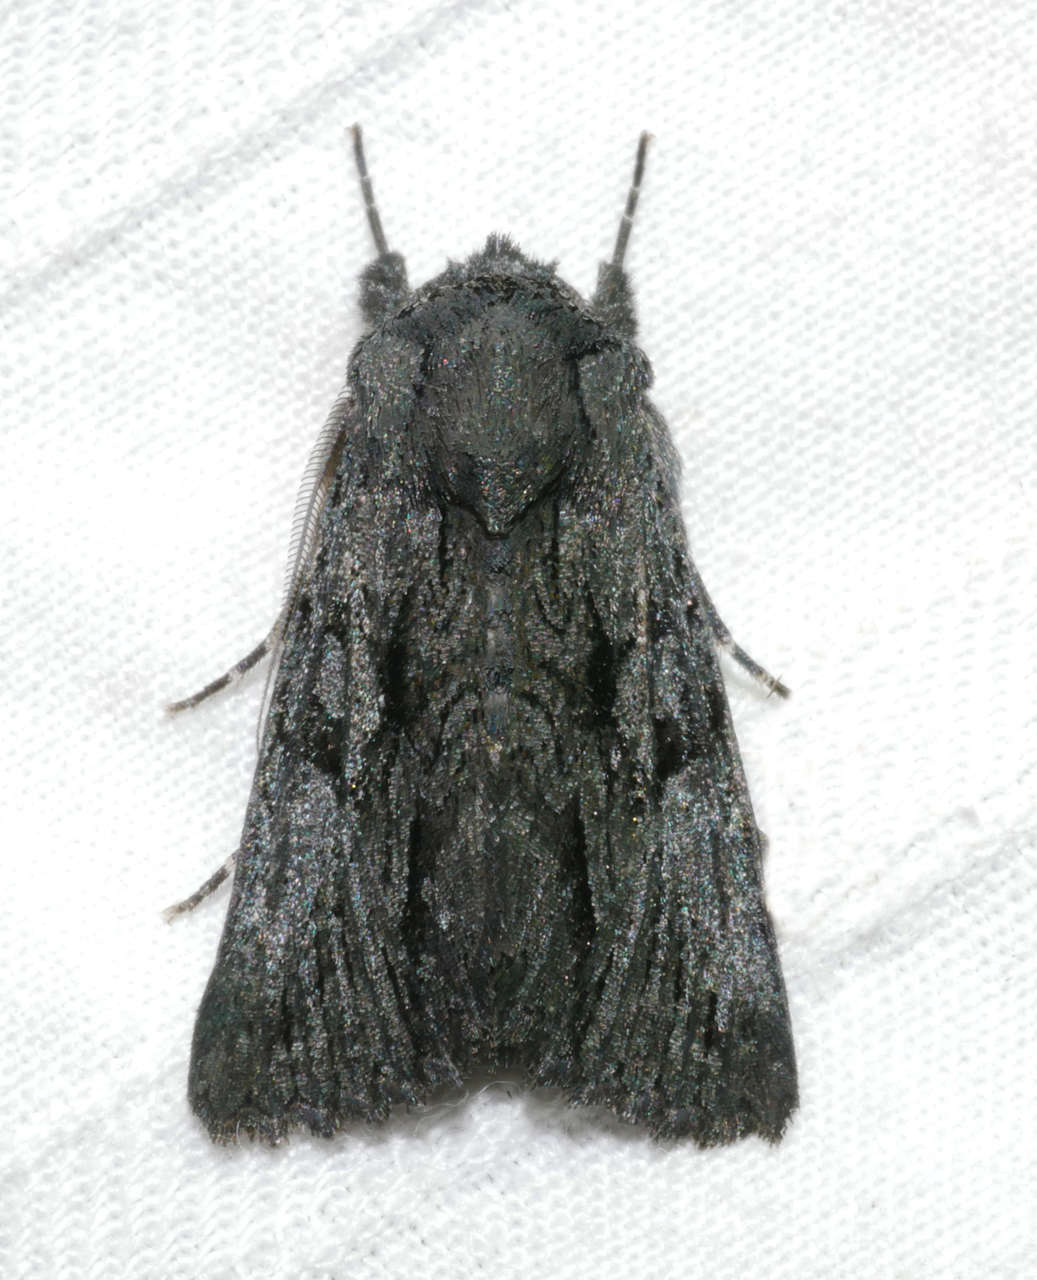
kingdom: Animalia
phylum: Arthropoda
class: Insecta
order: Lepidoptera
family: Noctuidae
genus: Neumichtis
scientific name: Neumichtis
